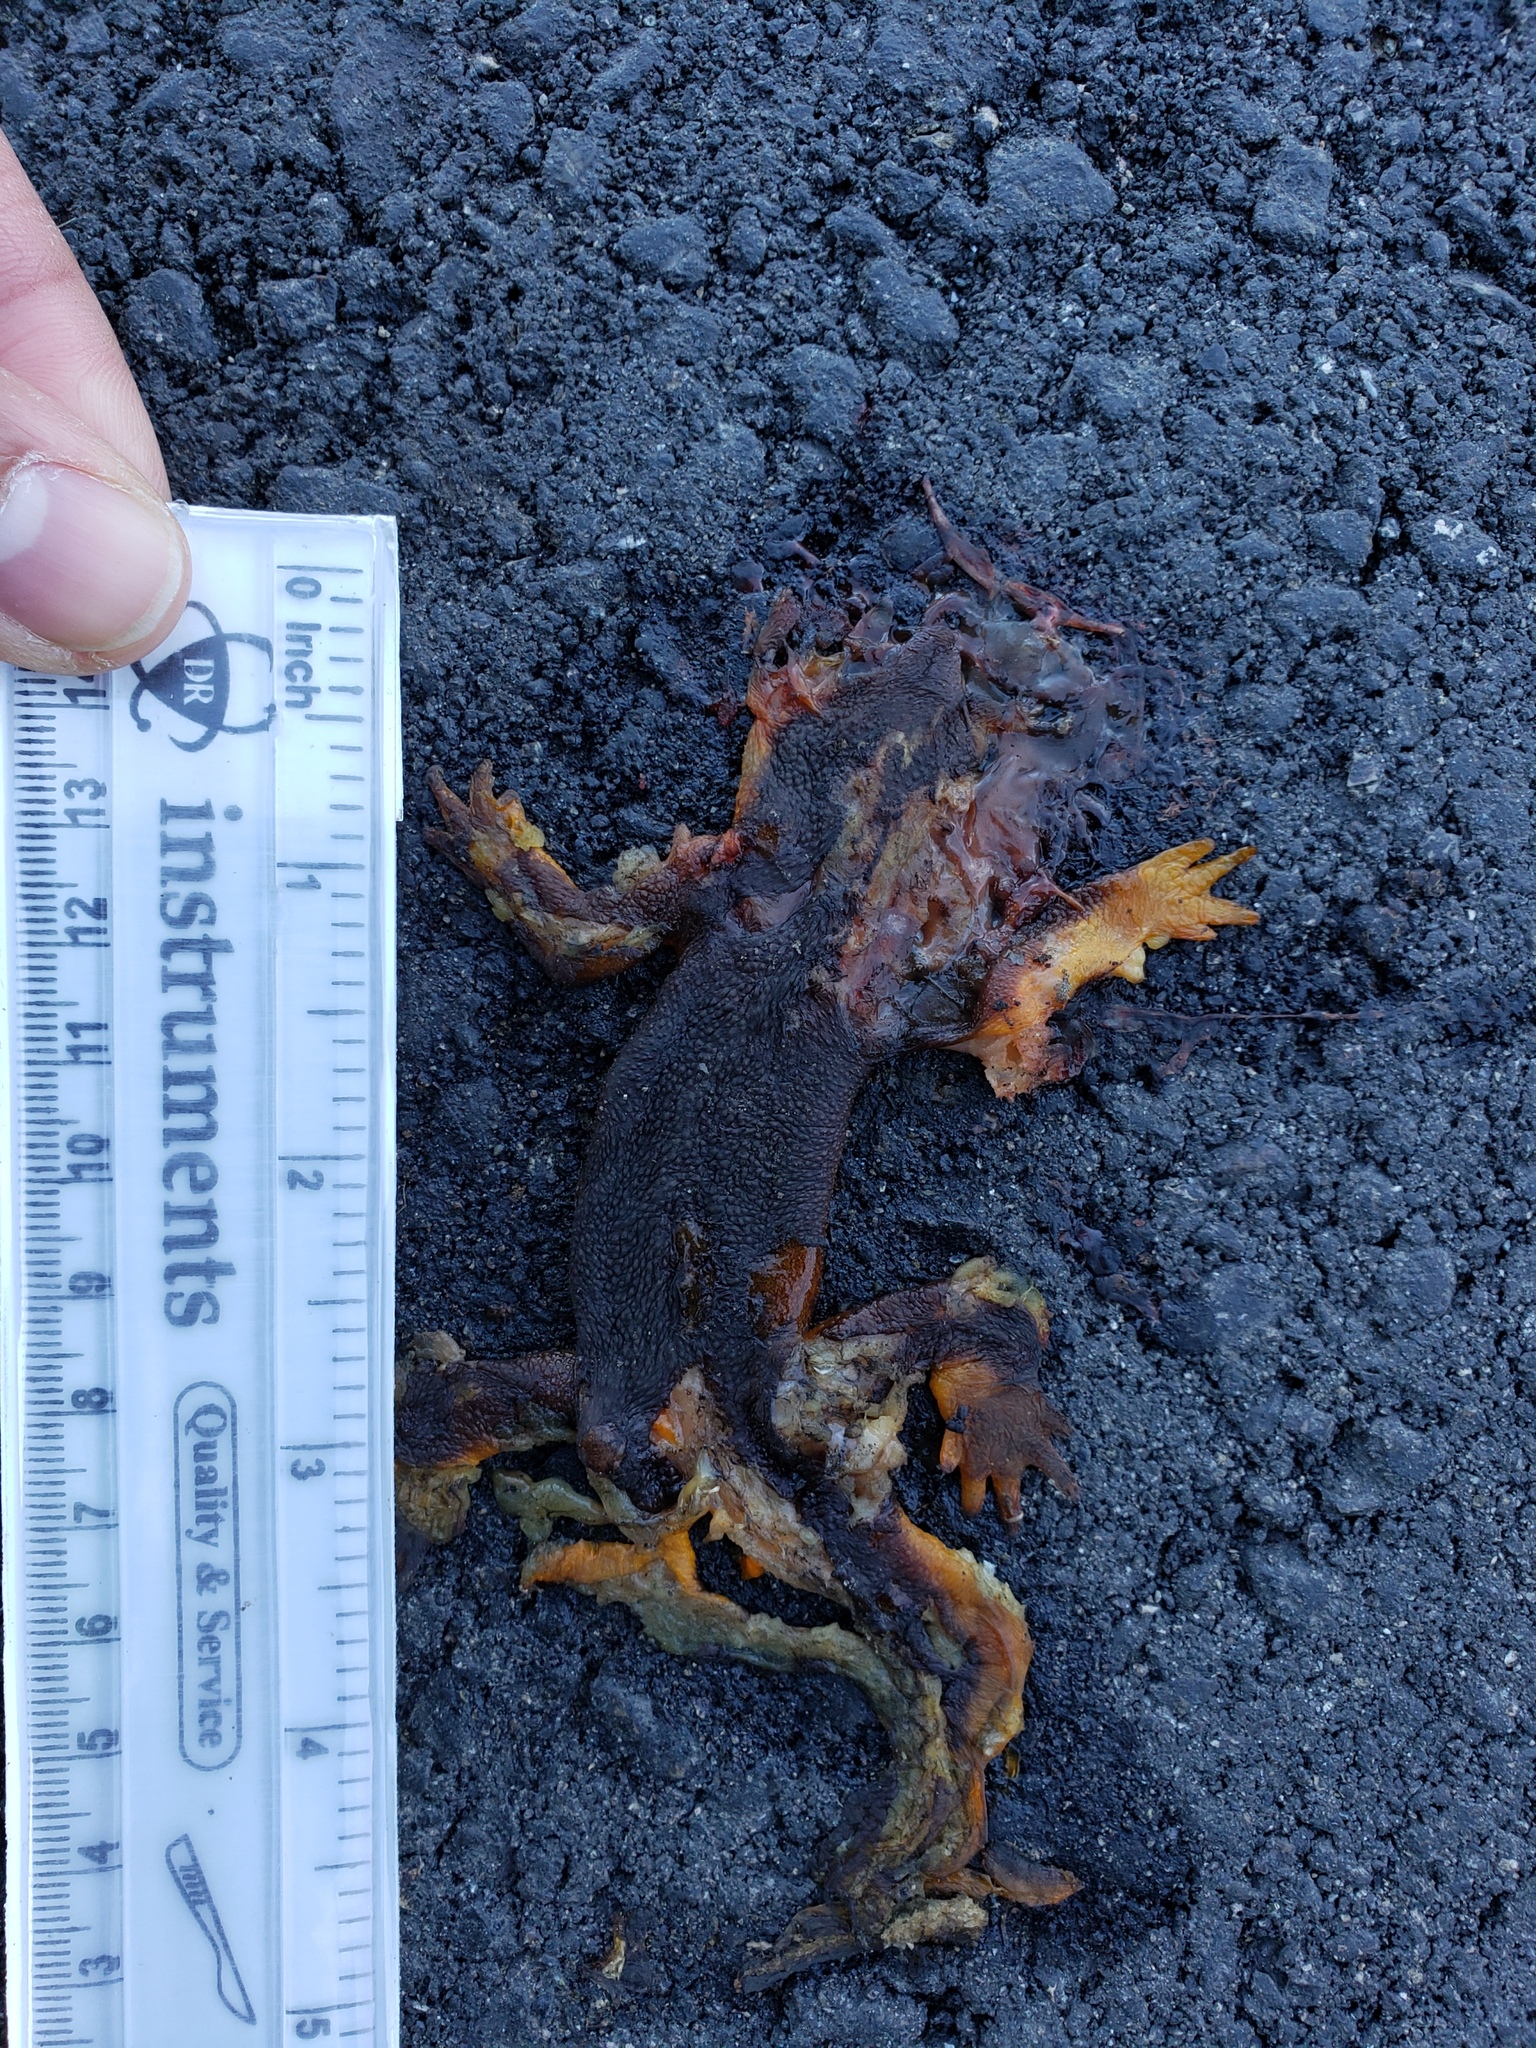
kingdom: Animalia
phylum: Chordata
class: Amphibia
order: Caudata
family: Salamandridae
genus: Taricha
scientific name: Taricha
